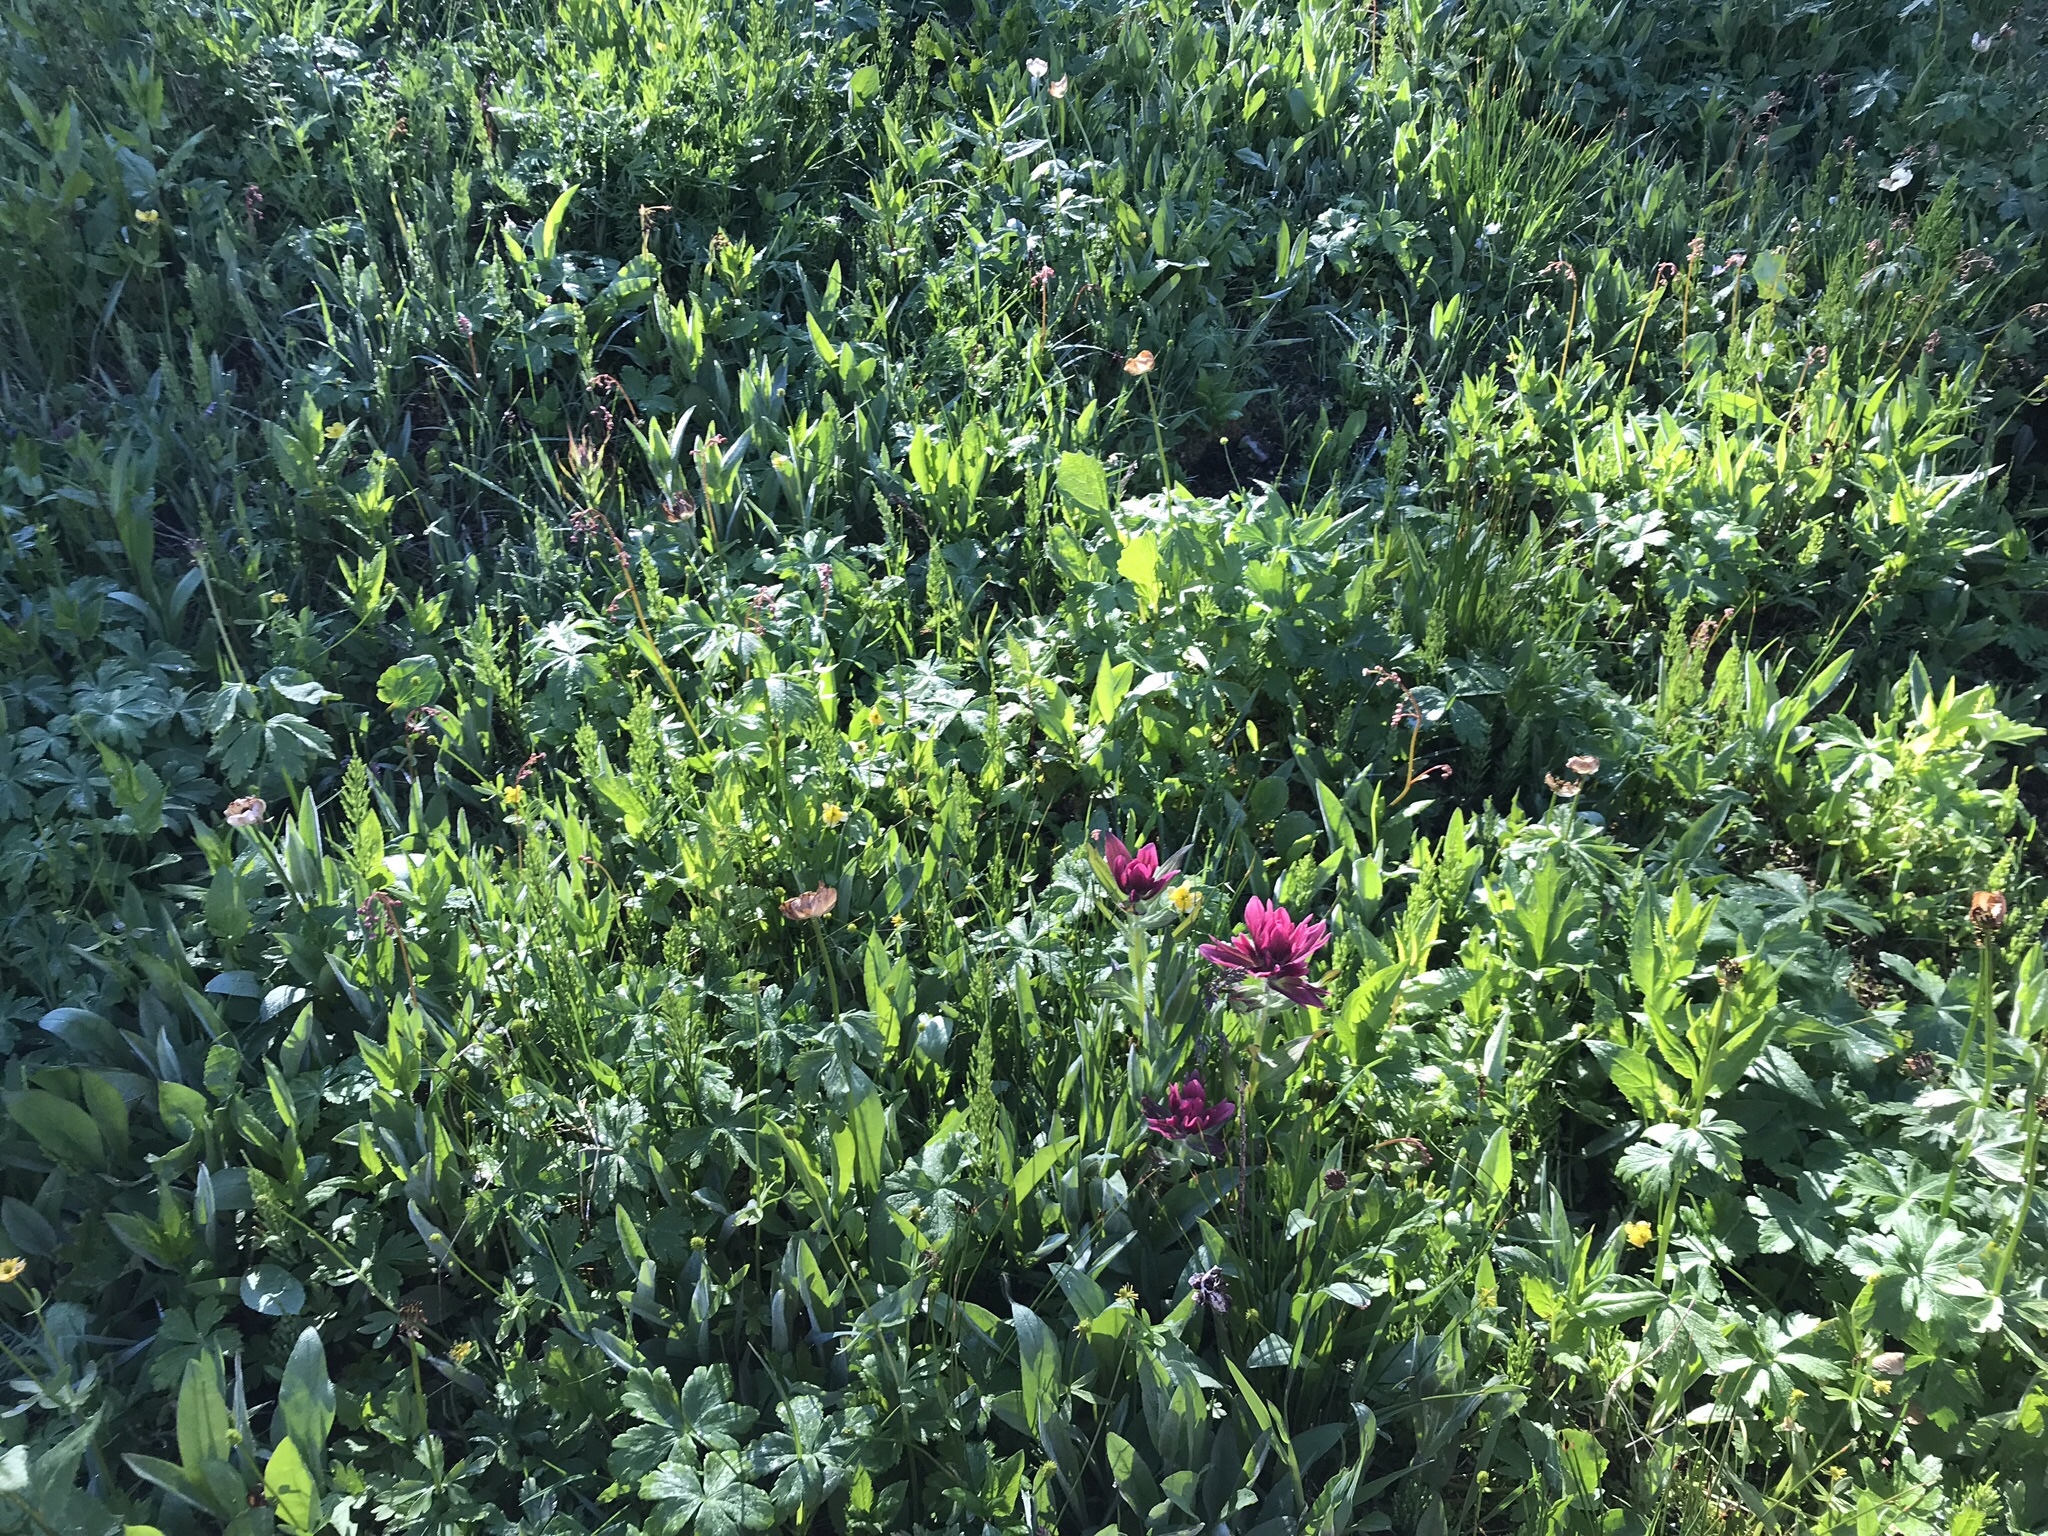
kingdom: Plantae
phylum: Tracheophyta
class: Magnoliopsida
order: Lamiales
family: Orobanchaceae
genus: Castilleja
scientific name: Castilleja rhexifolia
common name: Rocky mountain paintbrush
